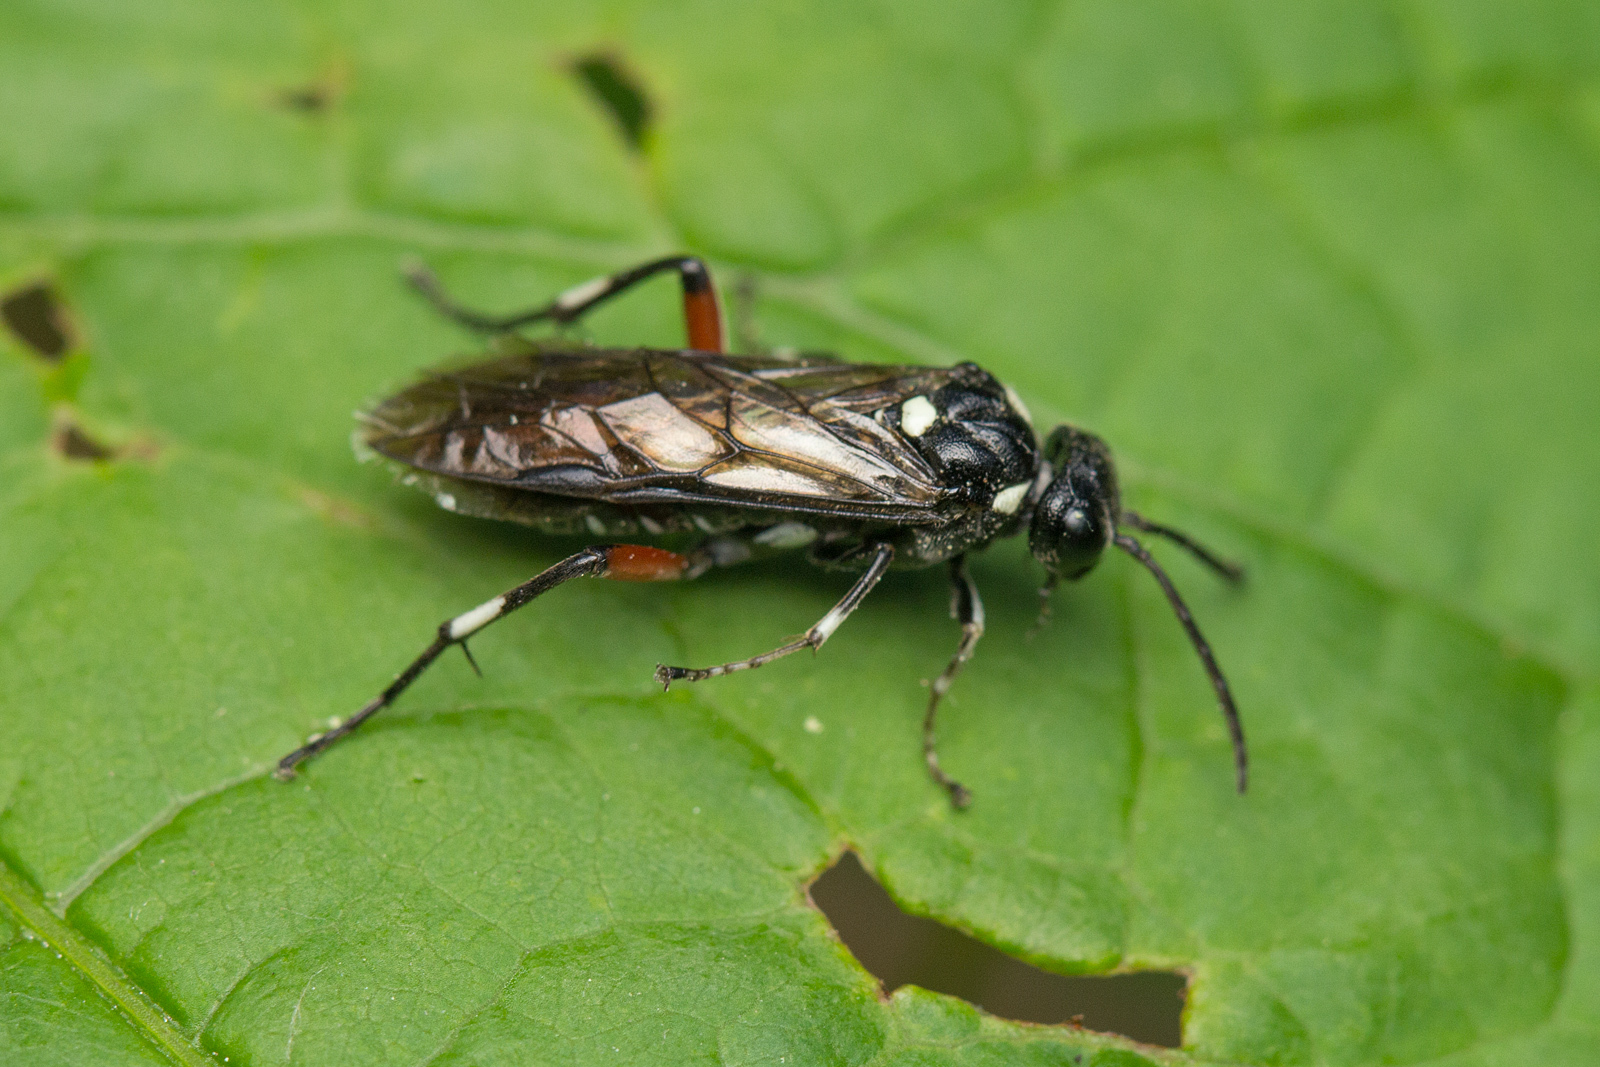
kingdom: Animalia
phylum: Arthropoda
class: Insecta
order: Hymenoptera
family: Tenthredinidae
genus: Macrophya
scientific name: Macrophya punctumalbum
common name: Sawfly
